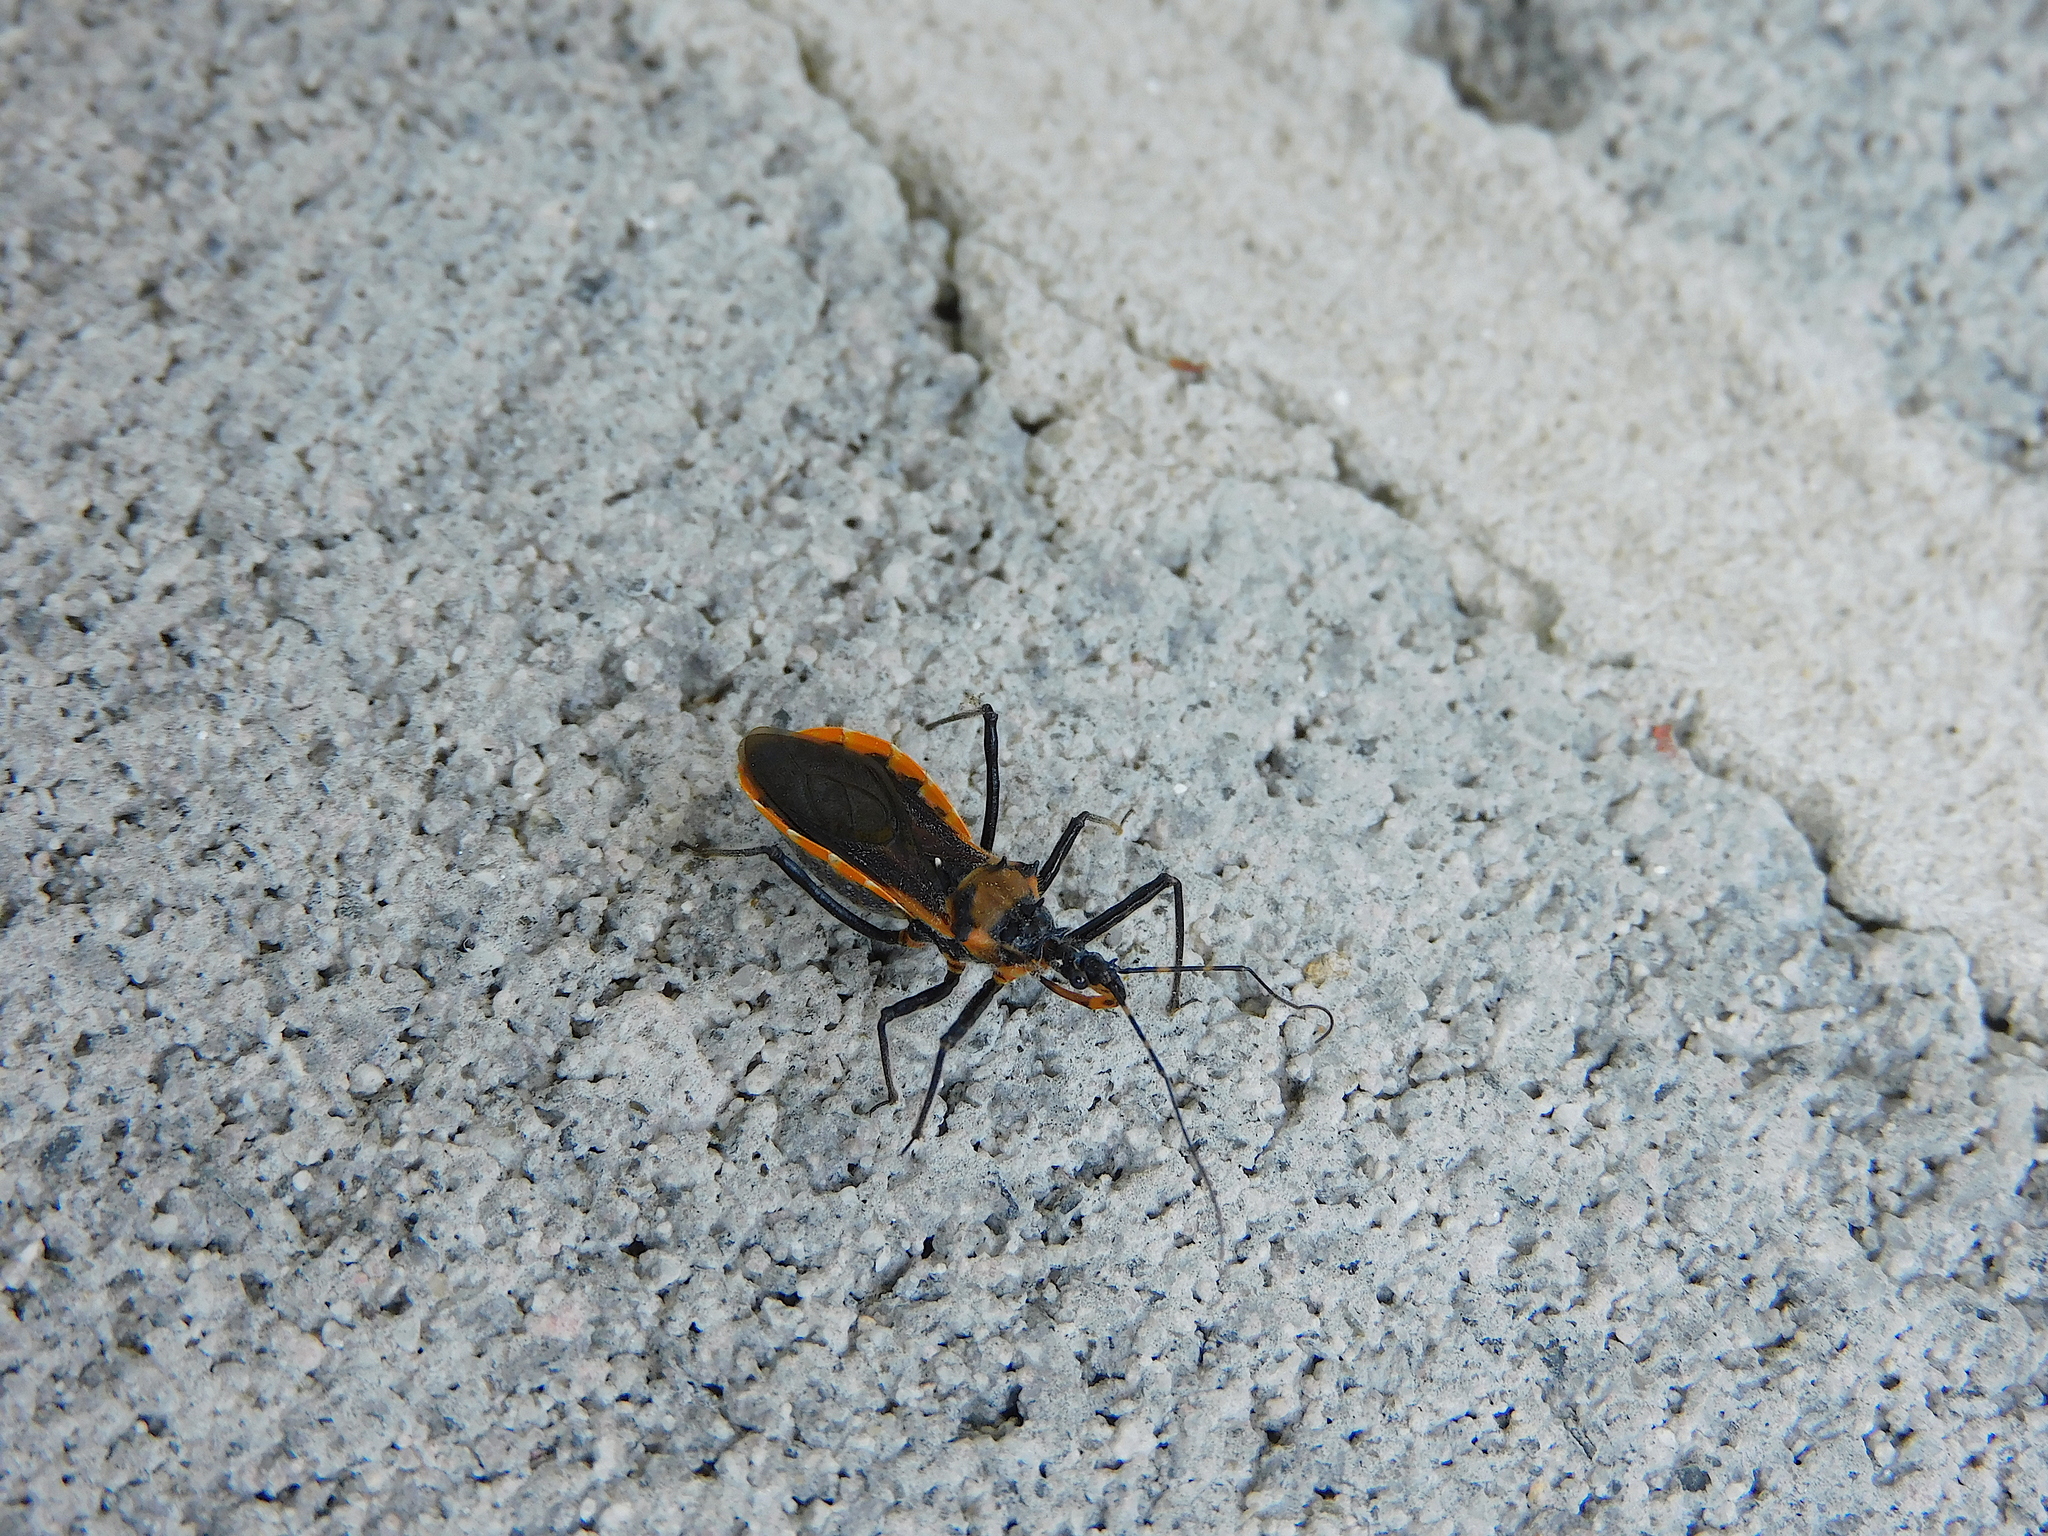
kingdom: Animalia
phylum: Arthropoda
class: Insecta
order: Hemiptera
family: Reduviidae
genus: Gminatus
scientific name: Gminatus australis
